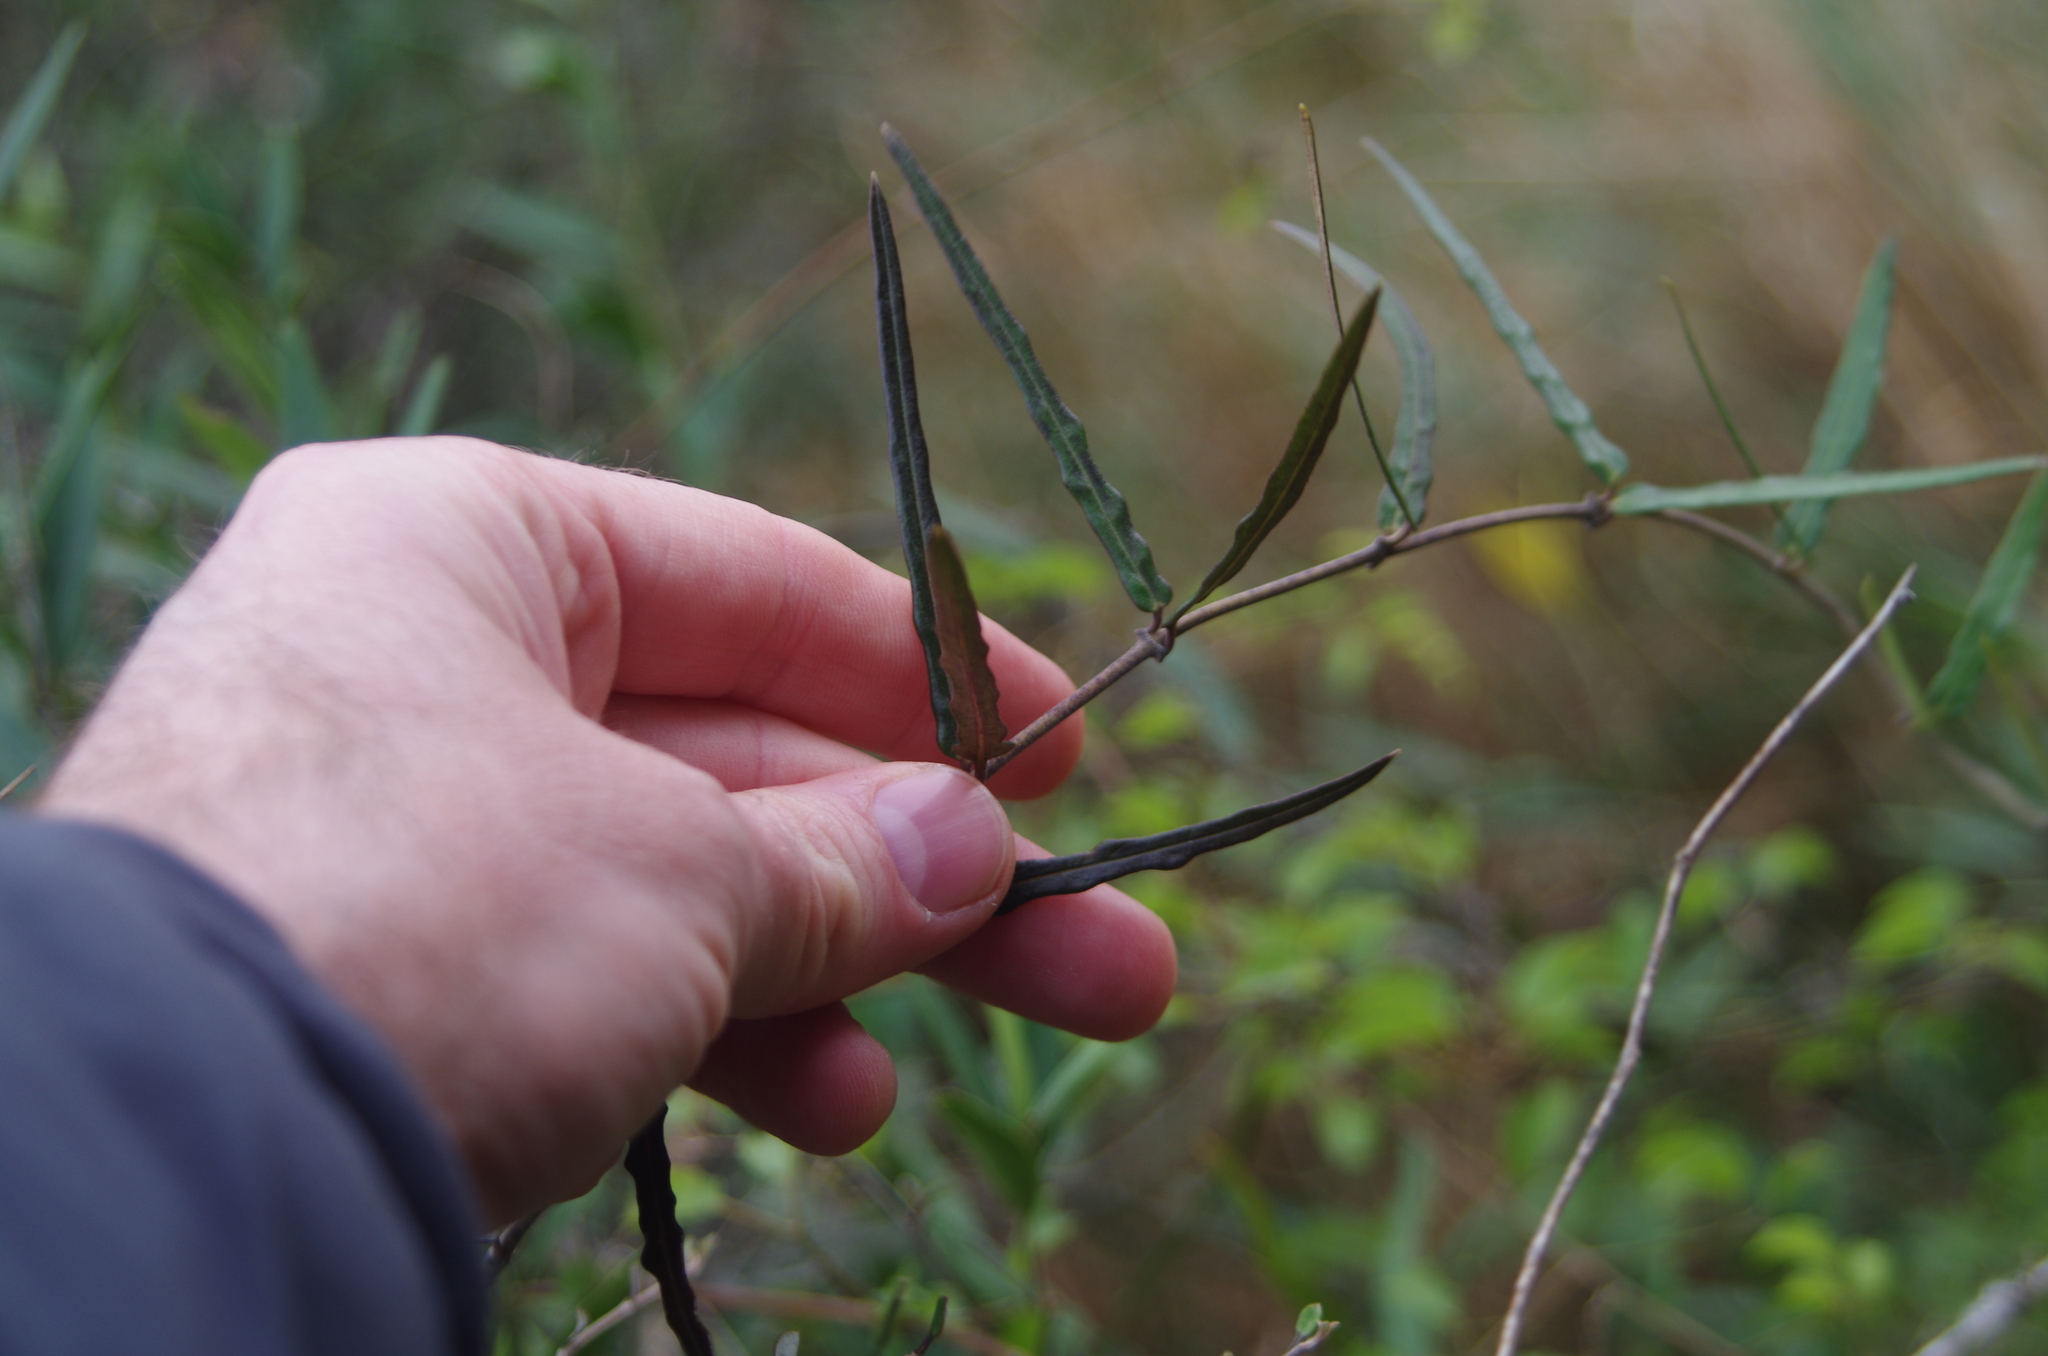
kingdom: Plantae
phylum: Tracheophyta
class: Magnoliopsida
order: Gentianales
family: Apocynaceae
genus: Parsonsia
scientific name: Parsonsia heterophylla
